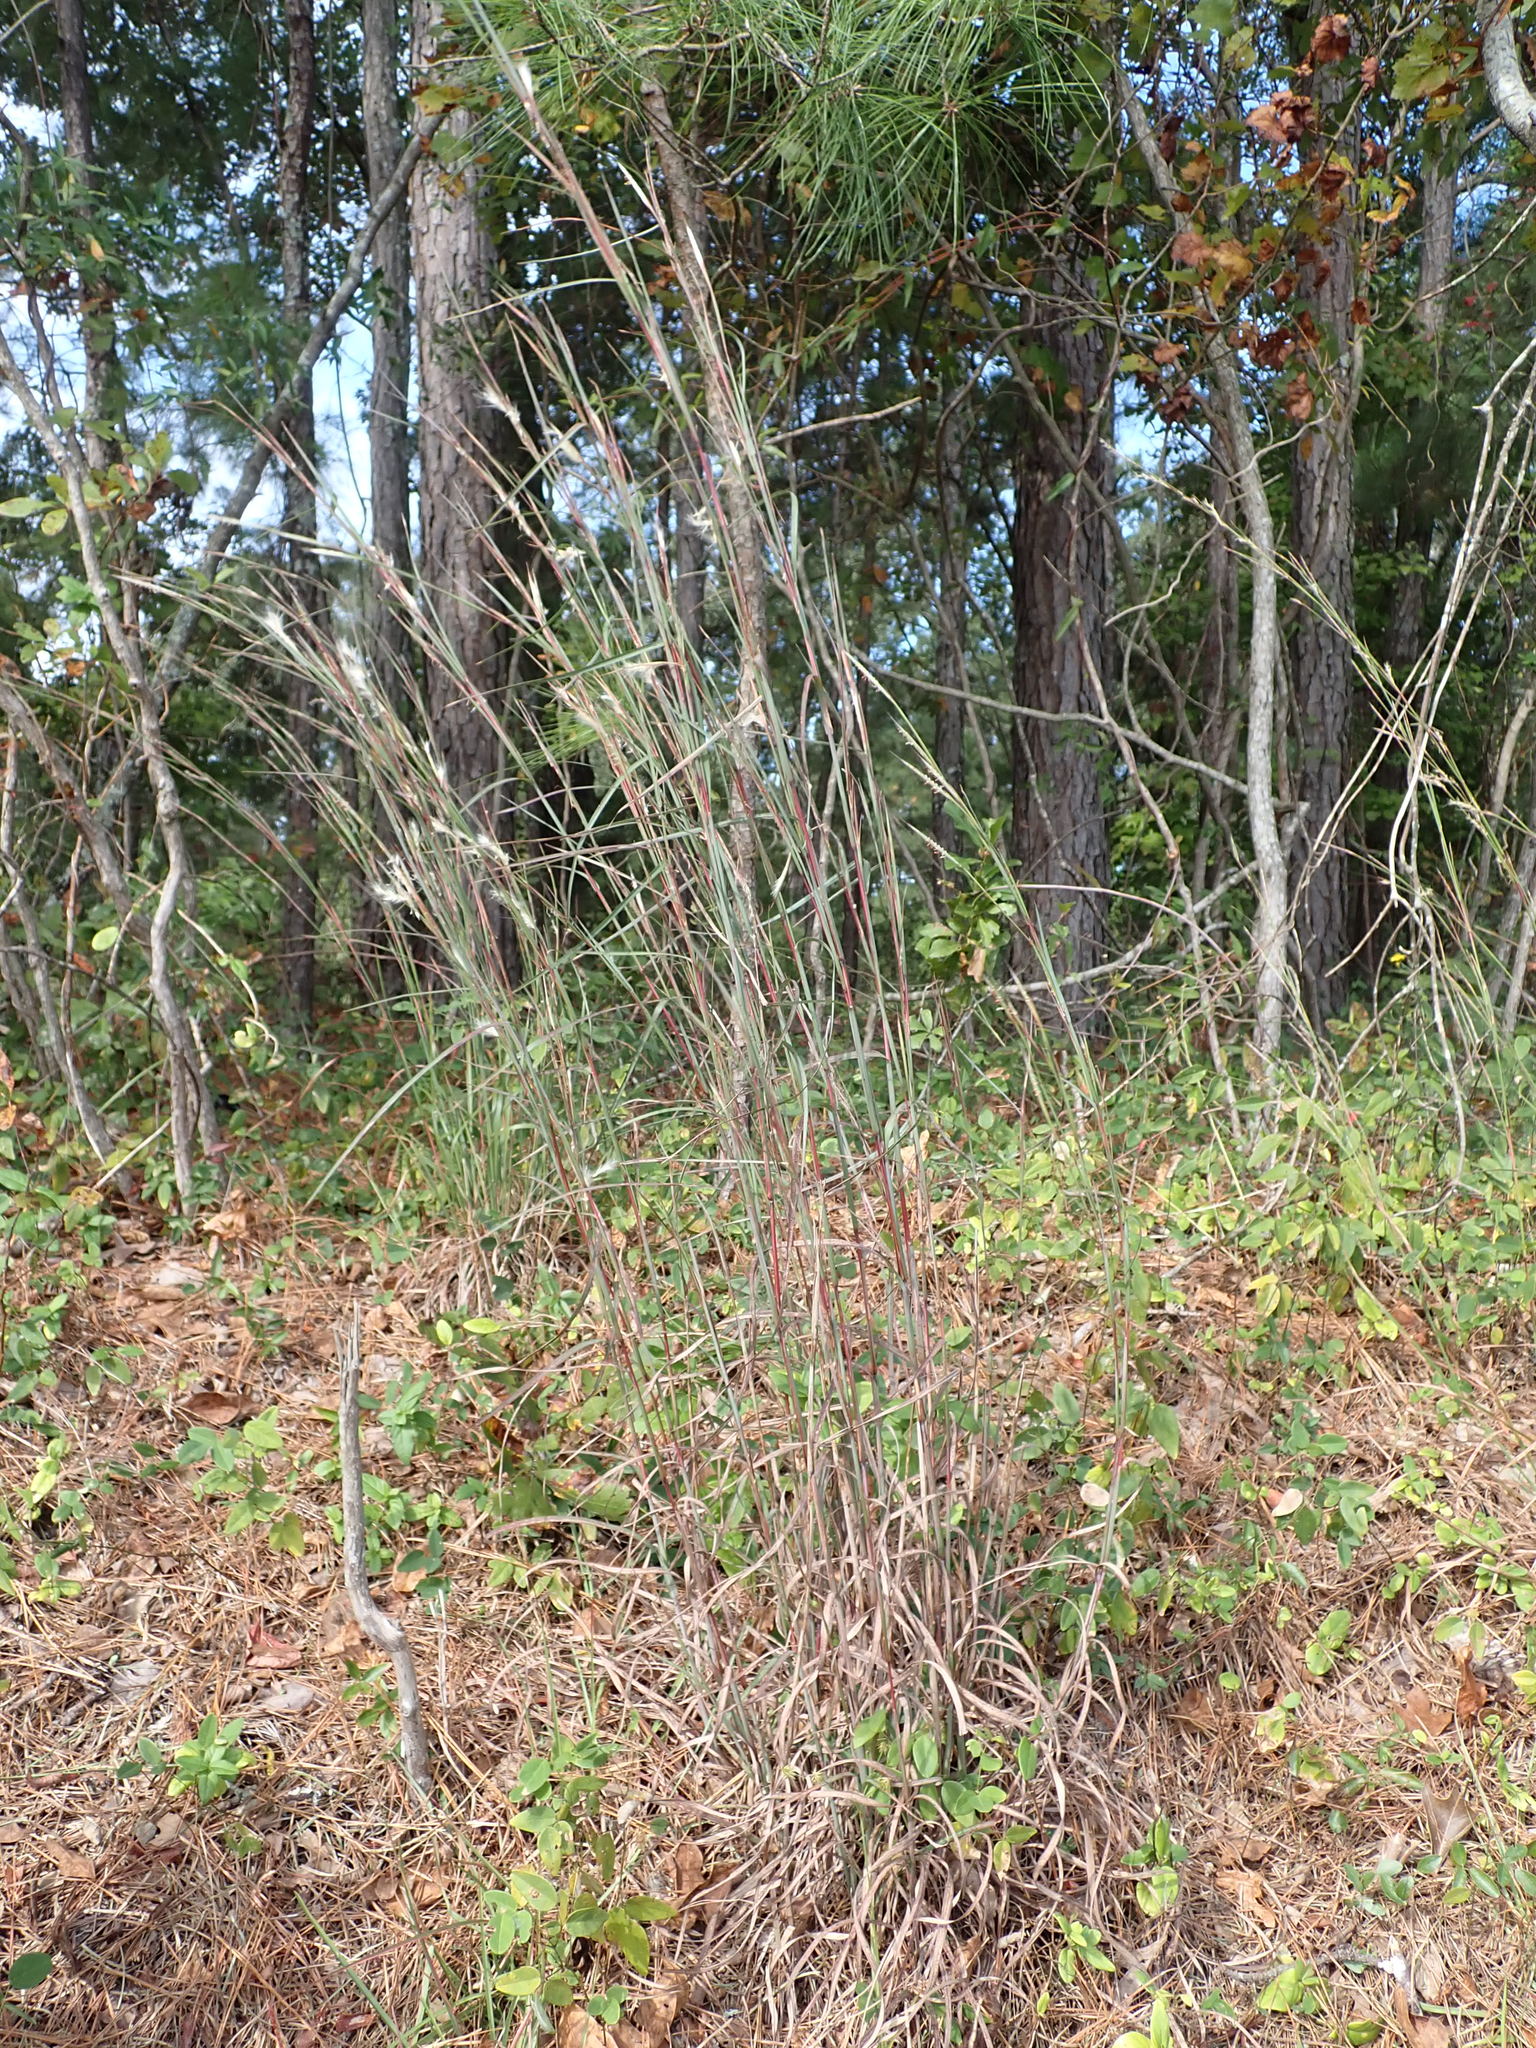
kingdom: Plantae
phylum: Tracheophyta
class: Liliopsida
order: Poales
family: Poaceae
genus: Andropogon
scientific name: Andropogon capillipes
